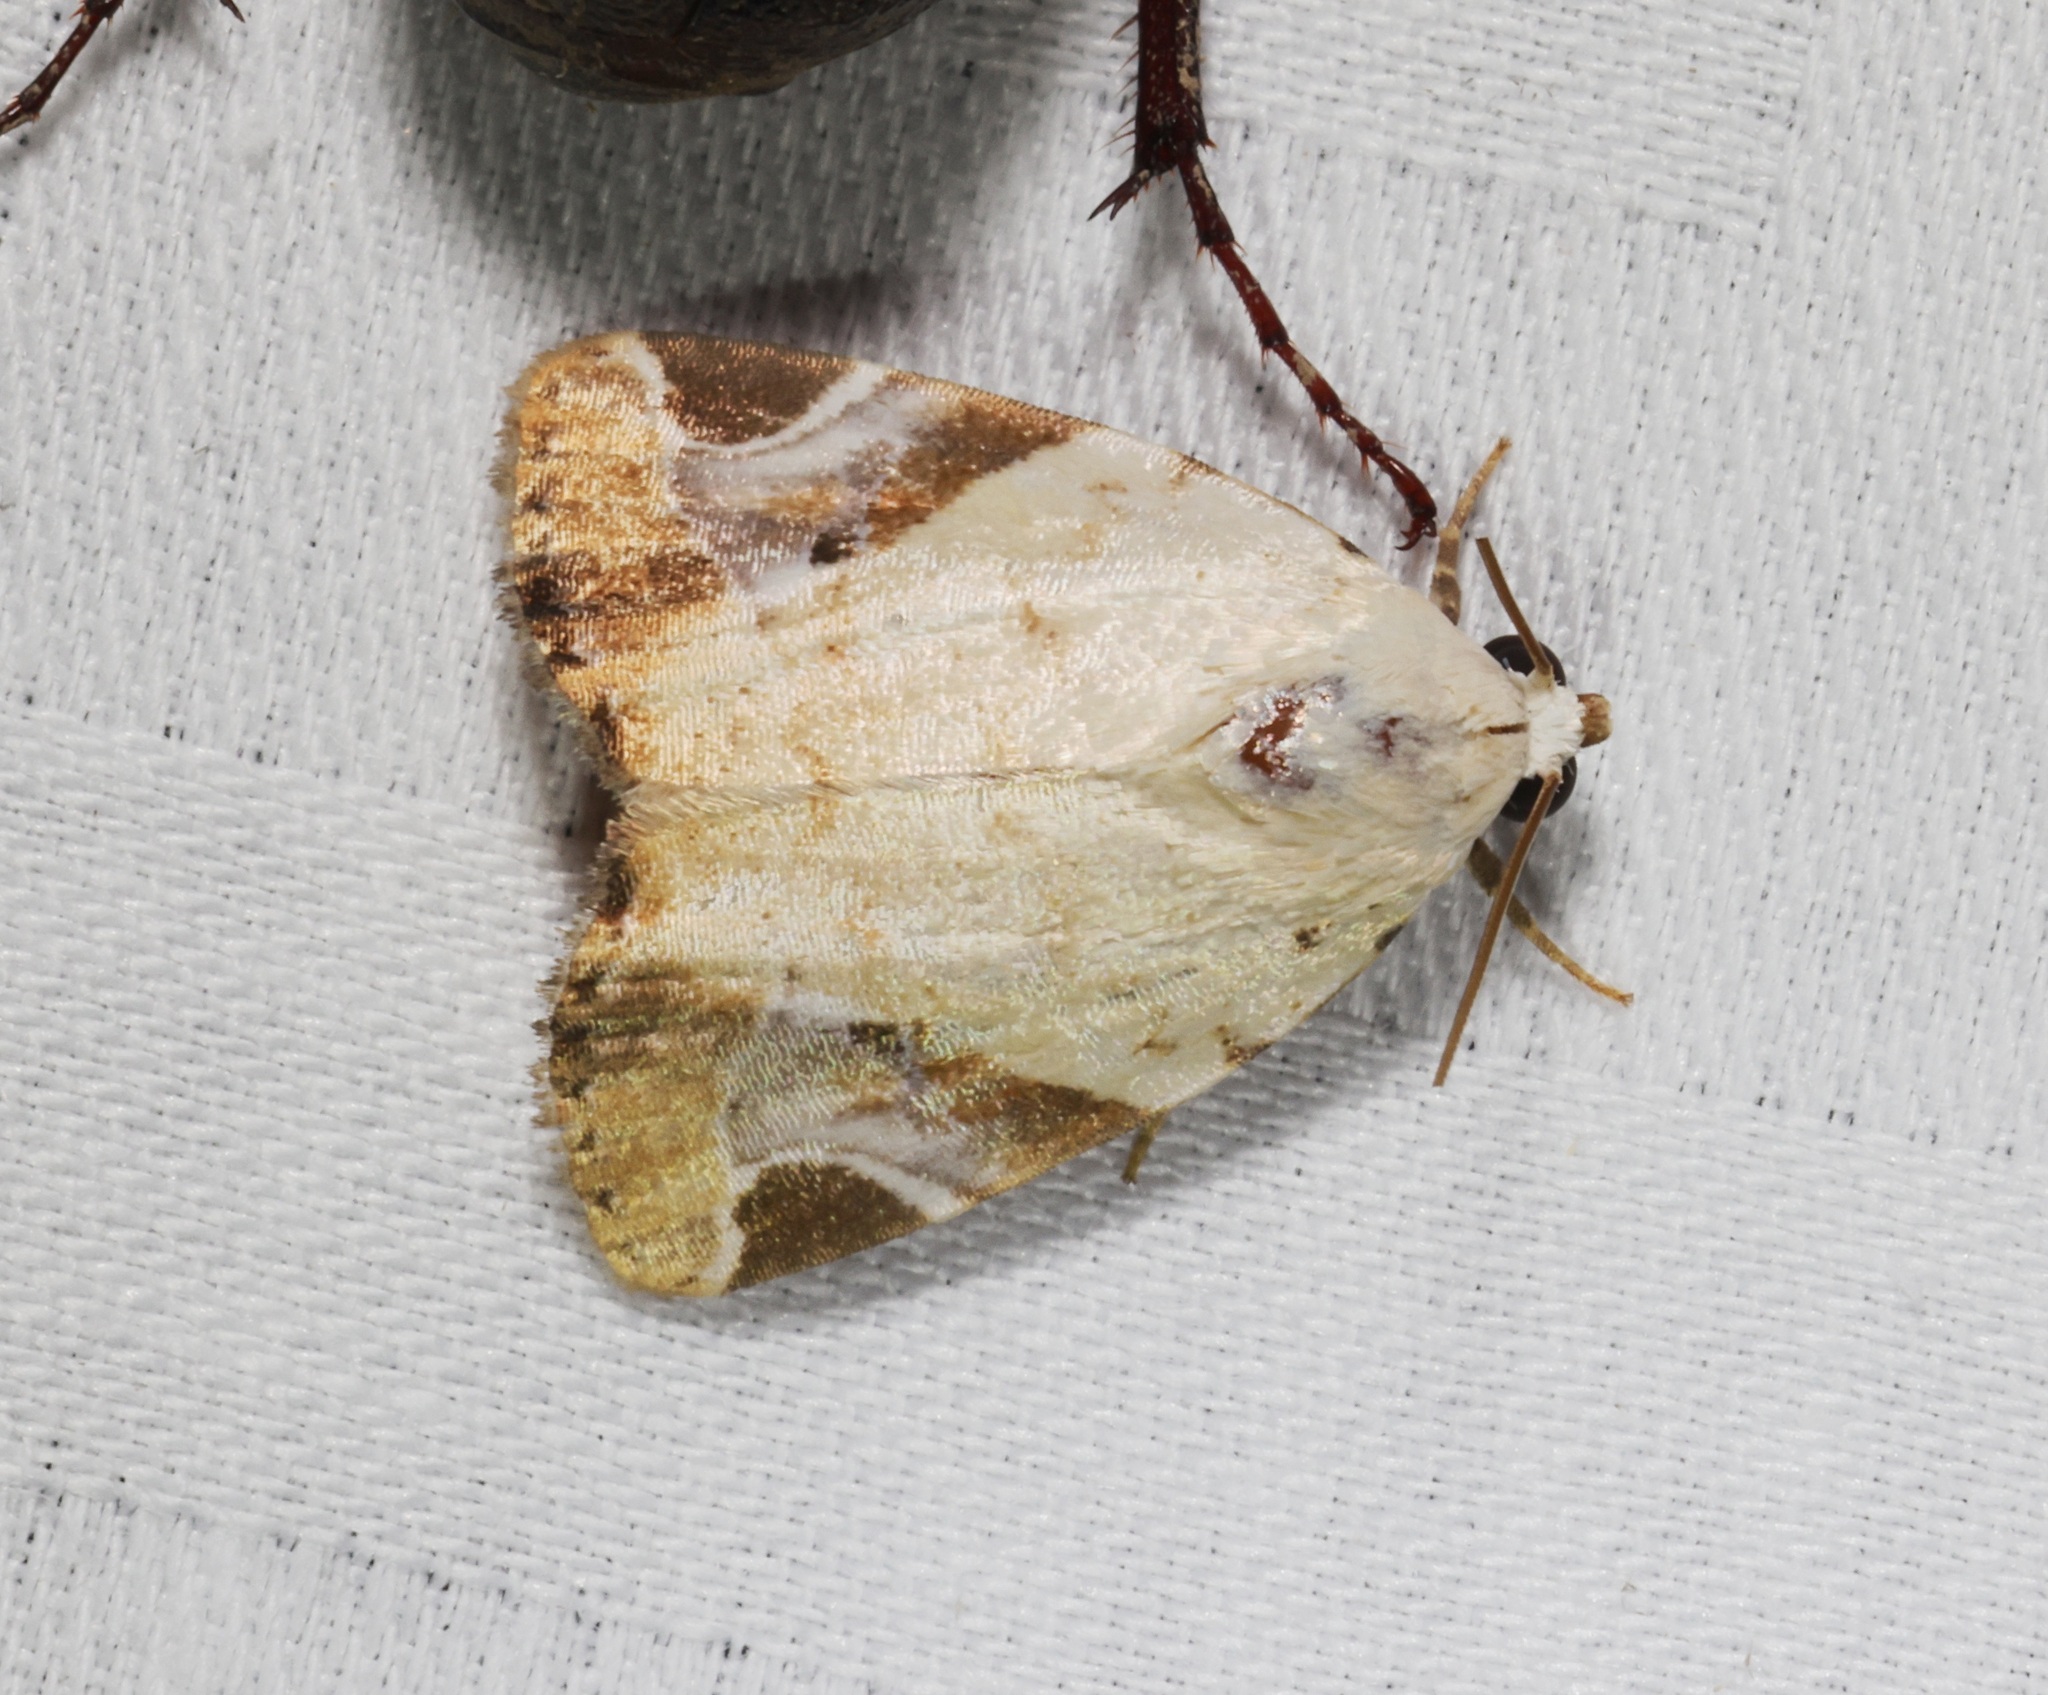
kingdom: Animalia
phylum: Arthropoda
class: Insecta
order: Lepidoptera
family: Noctuidae
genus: Pseudeustrotia
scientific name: Pseudeustrotia semialba
